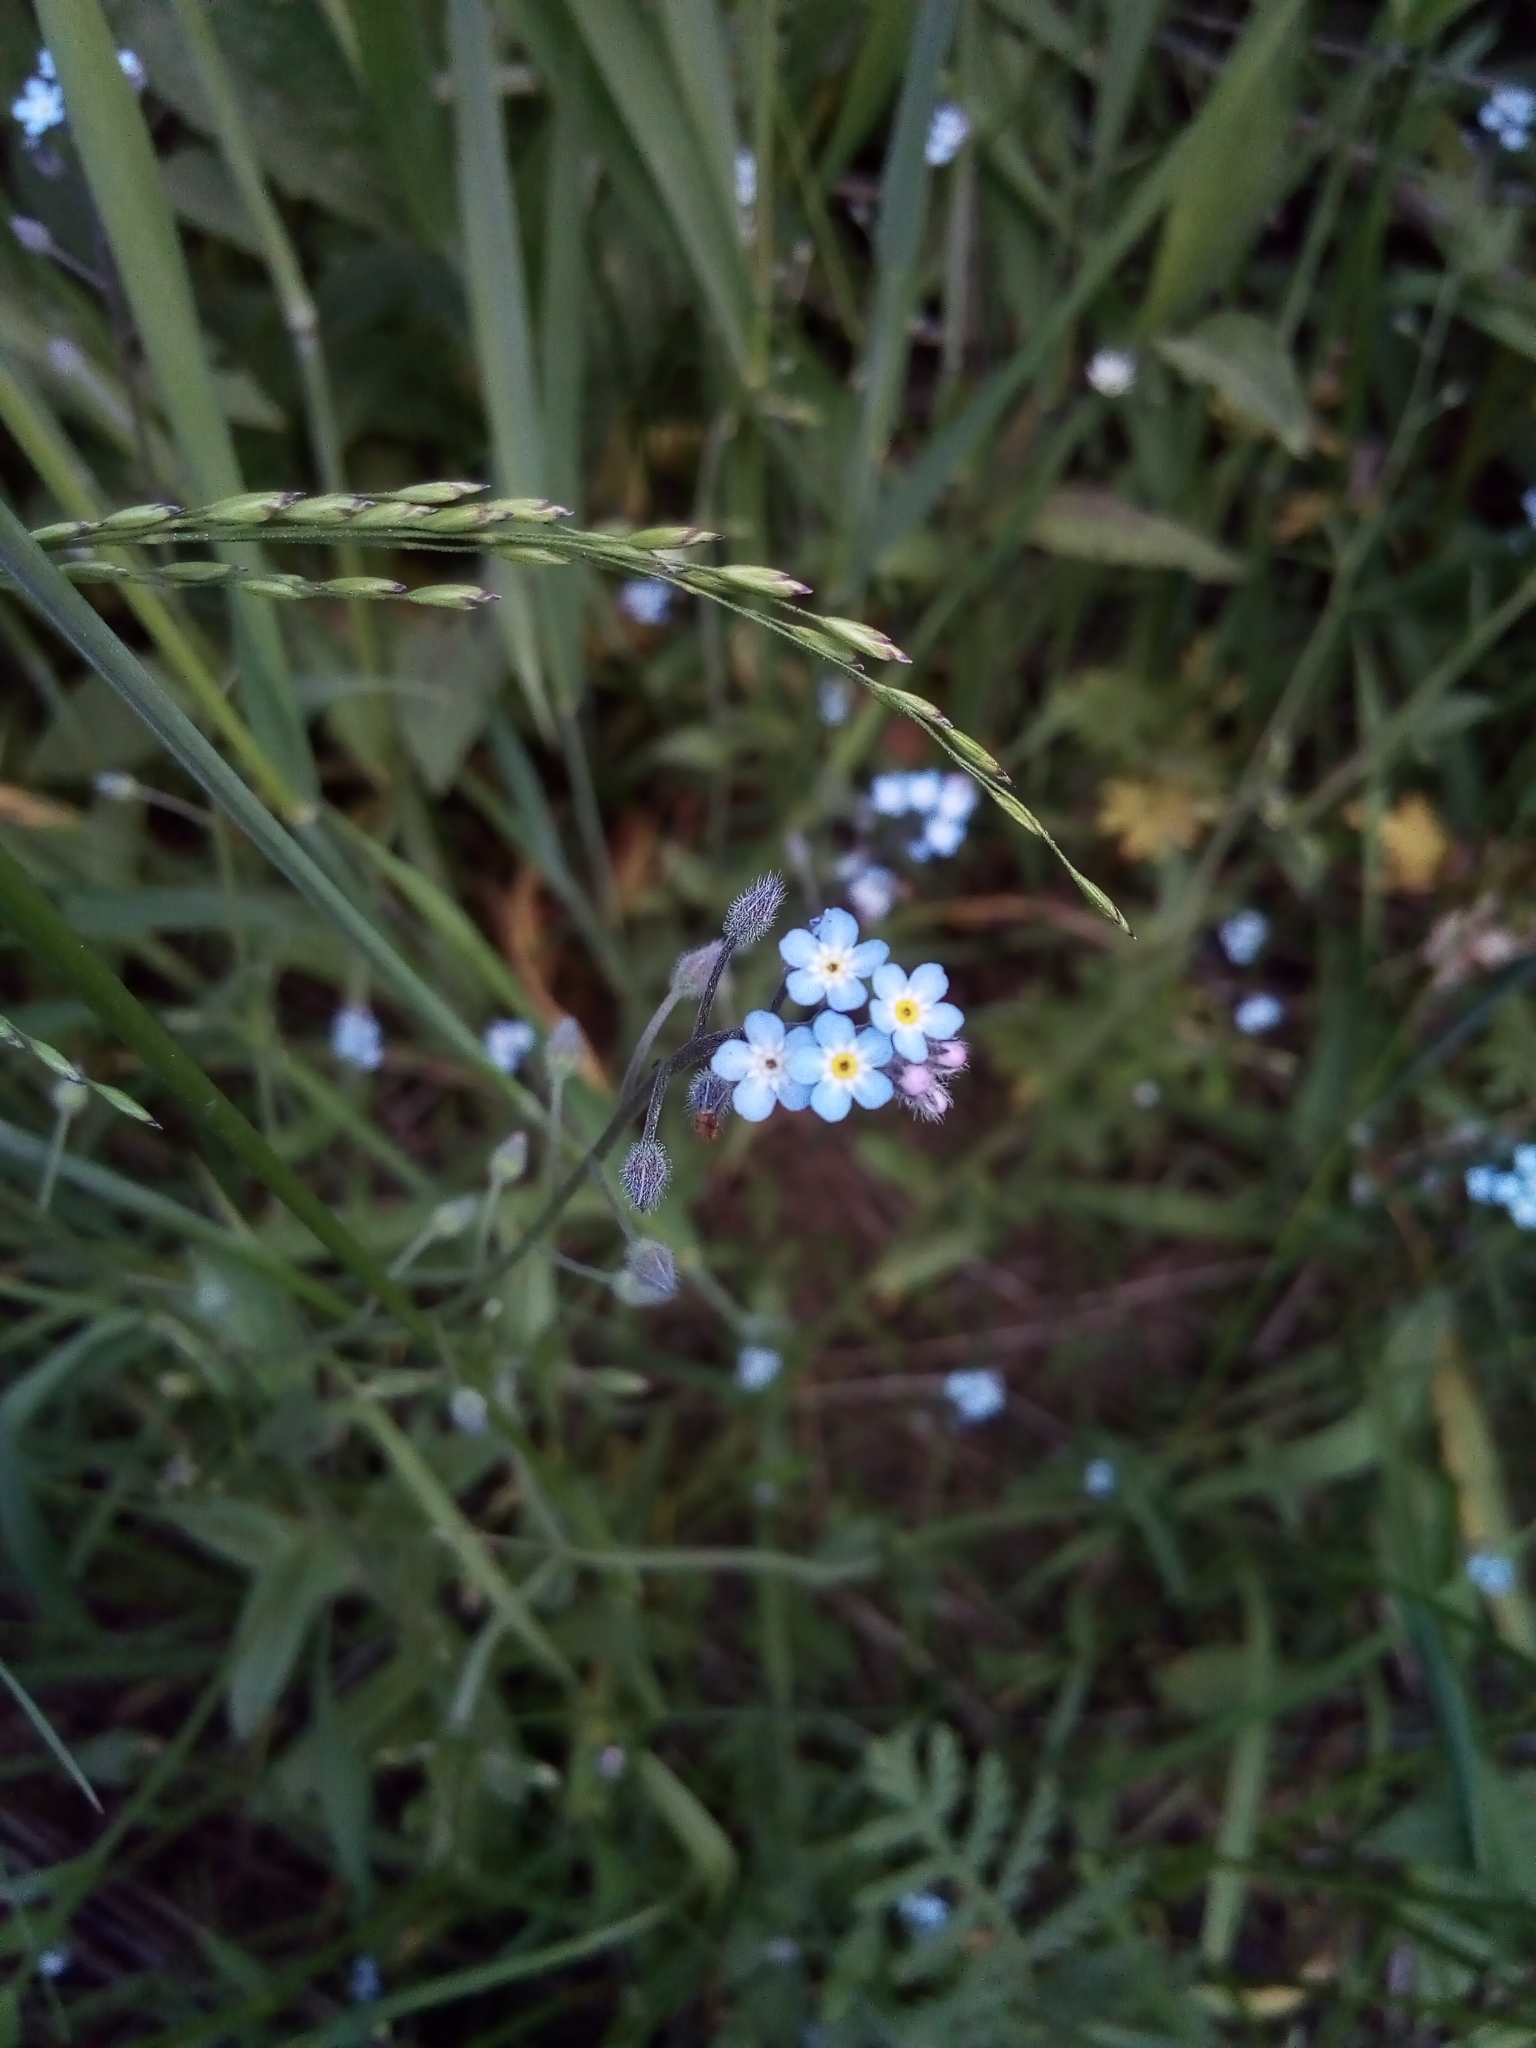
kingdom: Plantae
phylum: Tracheophyta
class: Magnoliopsida
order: Boraginales
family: Boraginaceae
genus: Myosotis
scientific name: Myosotis arvensis
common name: Field forget-me-not
